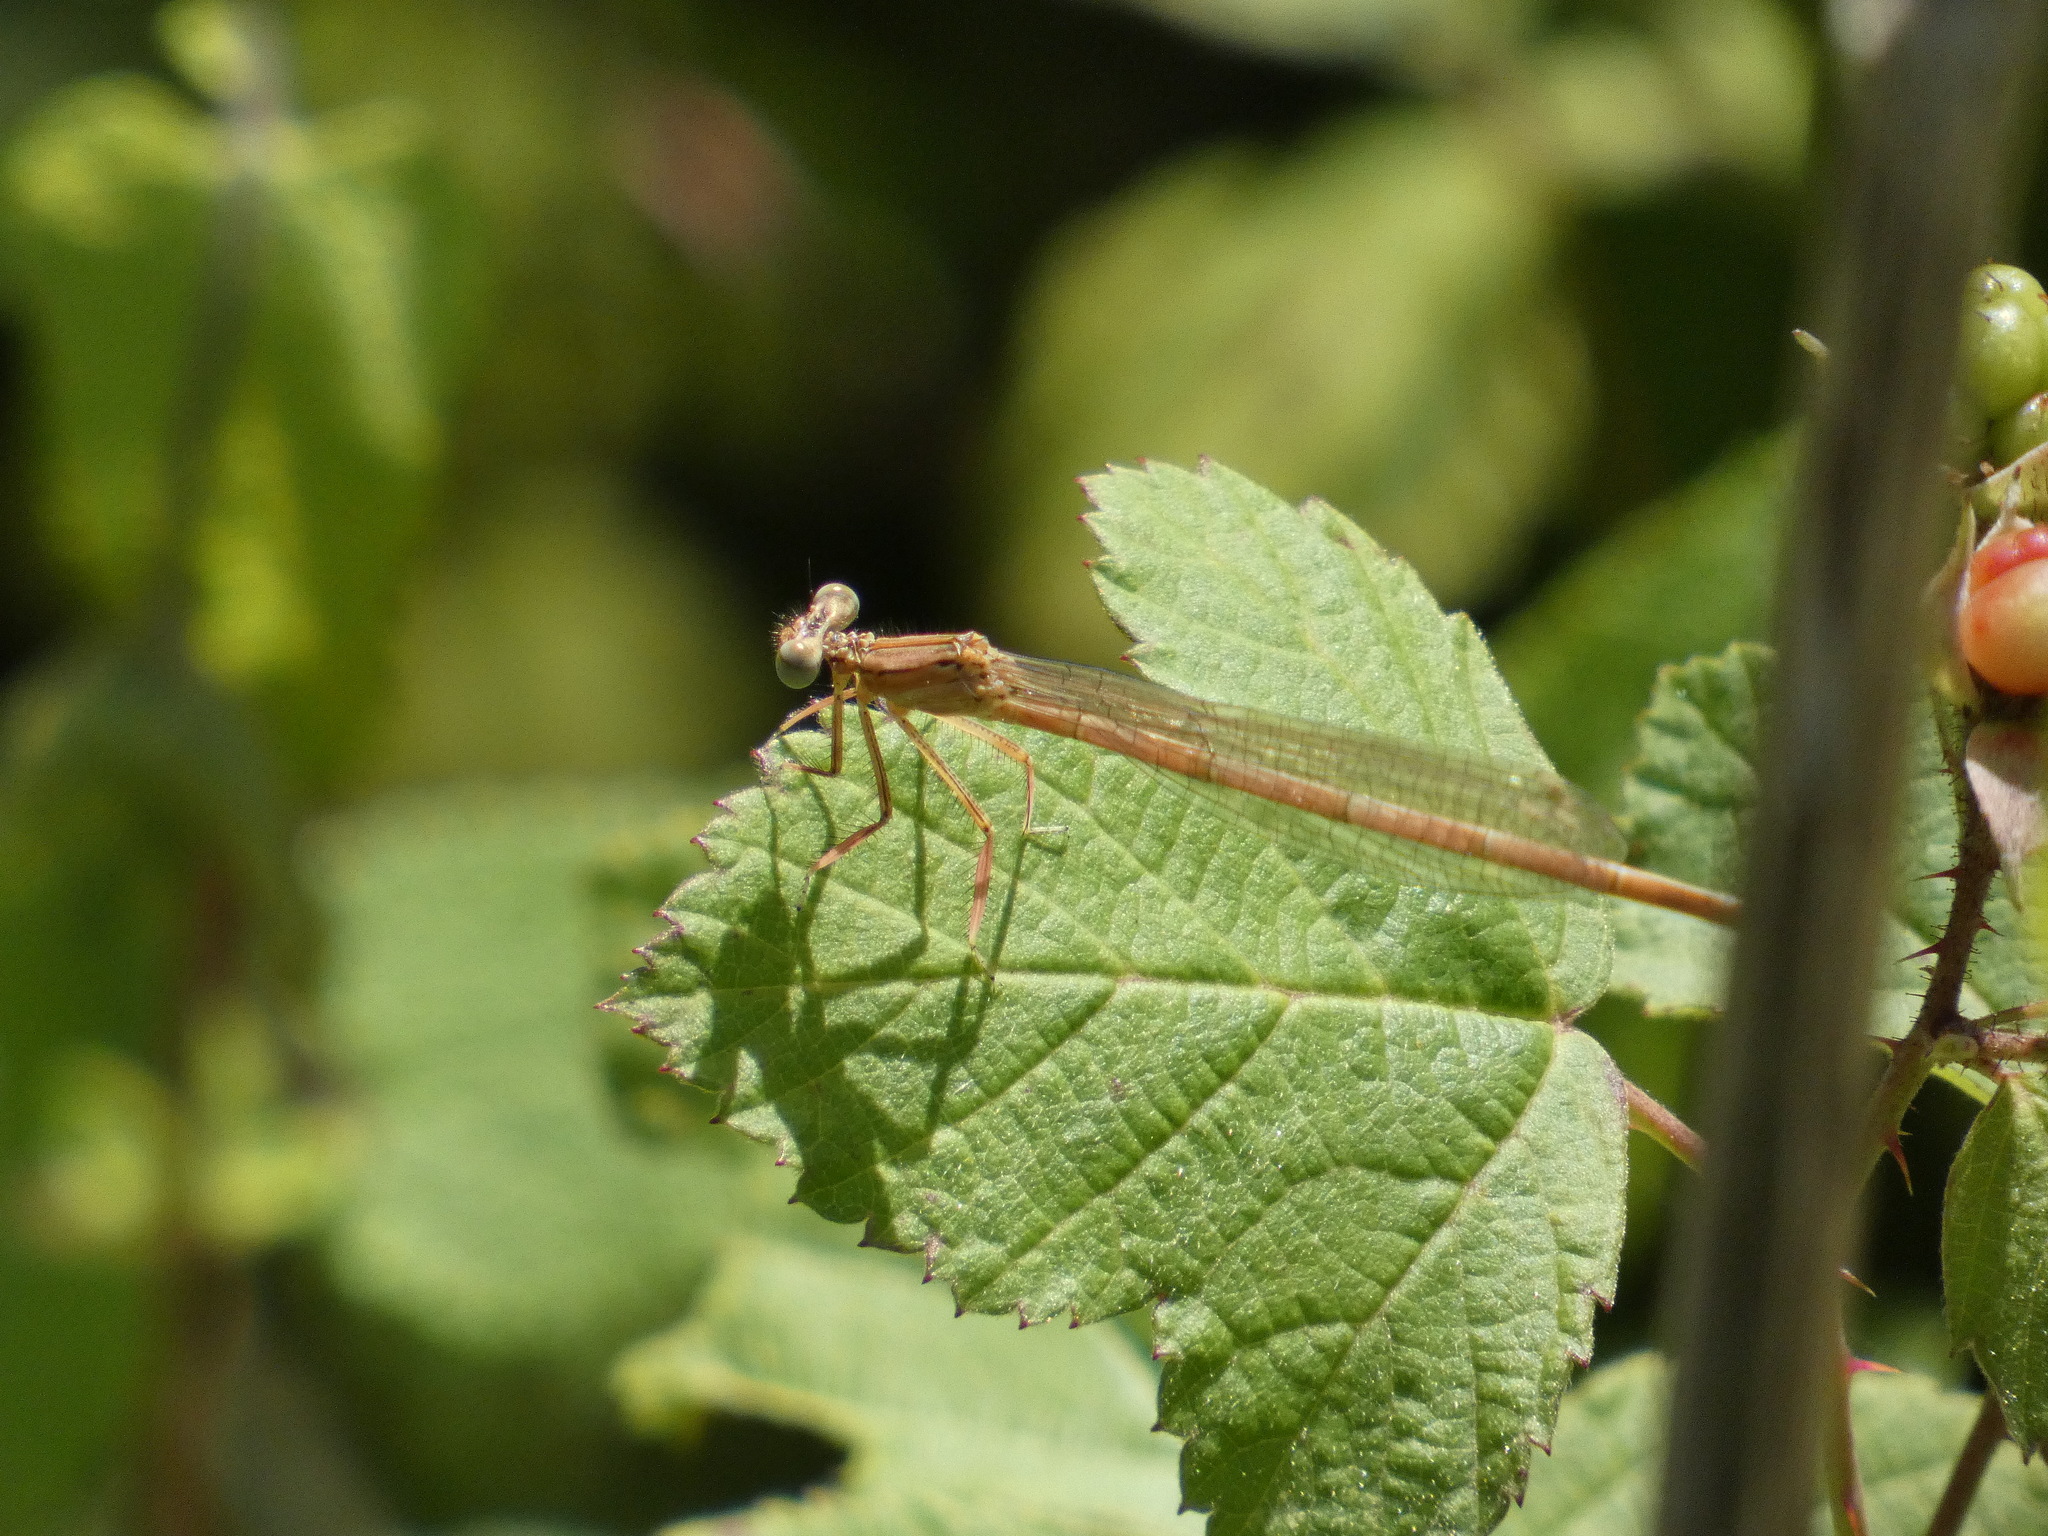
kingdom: Animalia
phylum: Arthropoda
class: Insecta
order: Odonata
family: Platycnemididae
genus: Platycnemis
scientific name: Platycnemis acutipennis
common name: Orange featherleg
